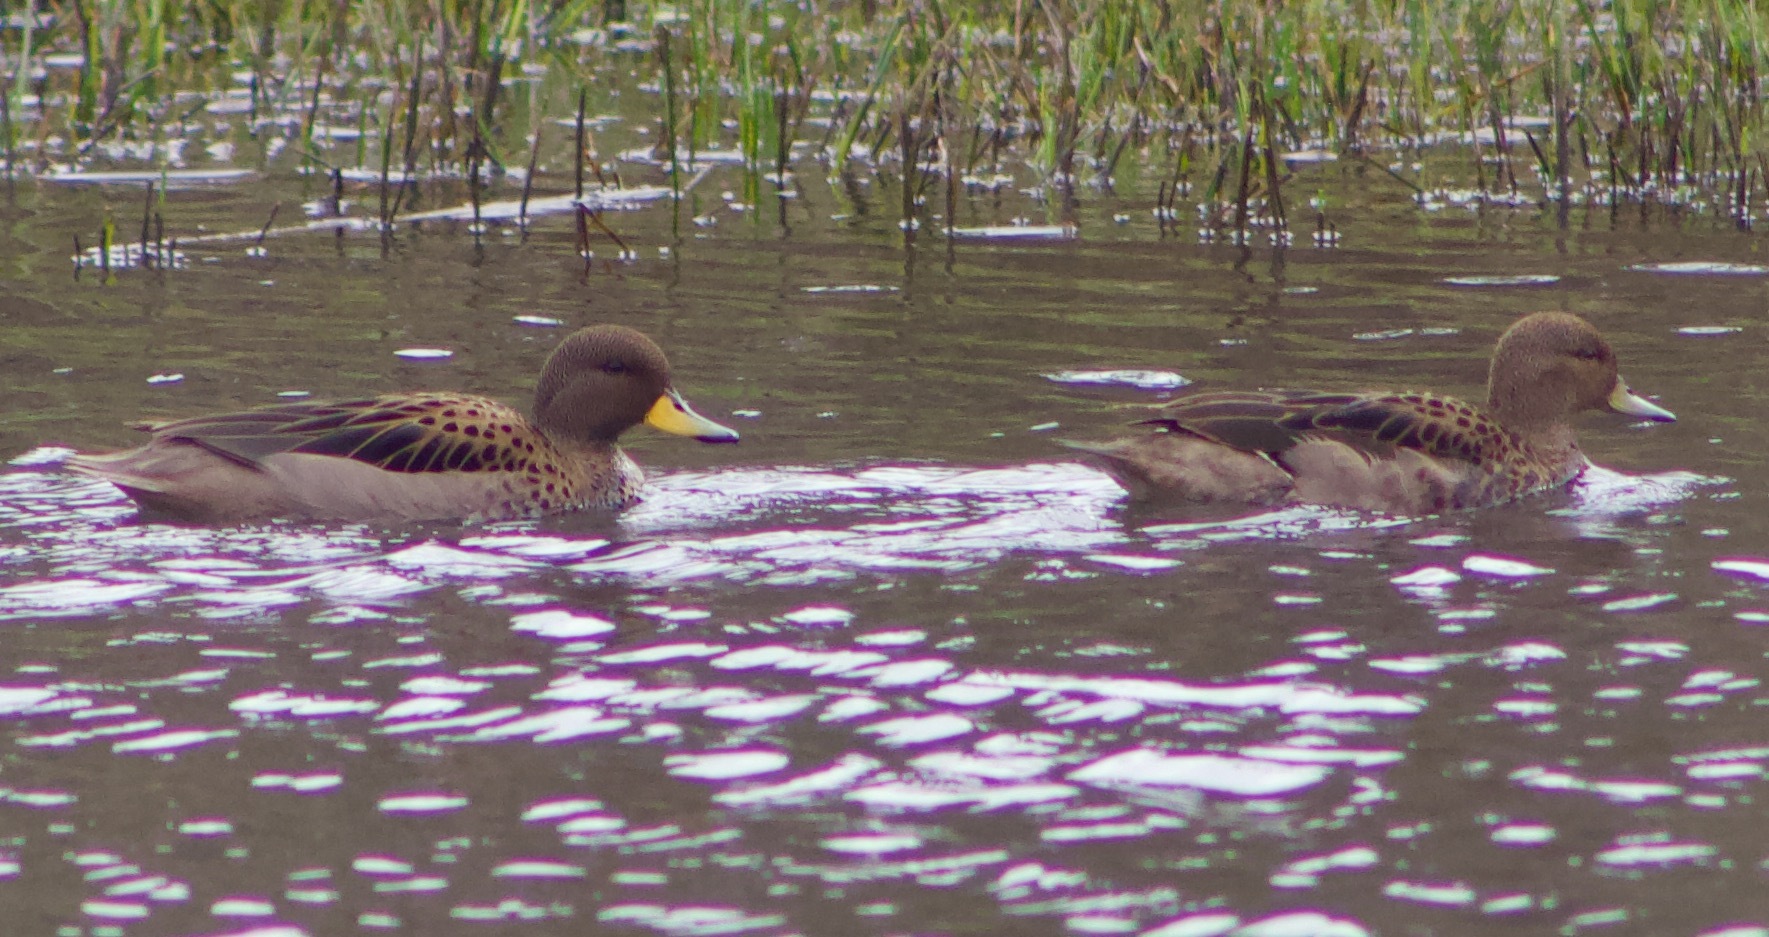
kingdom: Animalia
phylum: Chordata
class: Aves
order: Anseriformes
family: Anatidae
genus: Anas
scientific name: Anas flavirostris
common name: Yellow-billed teal
